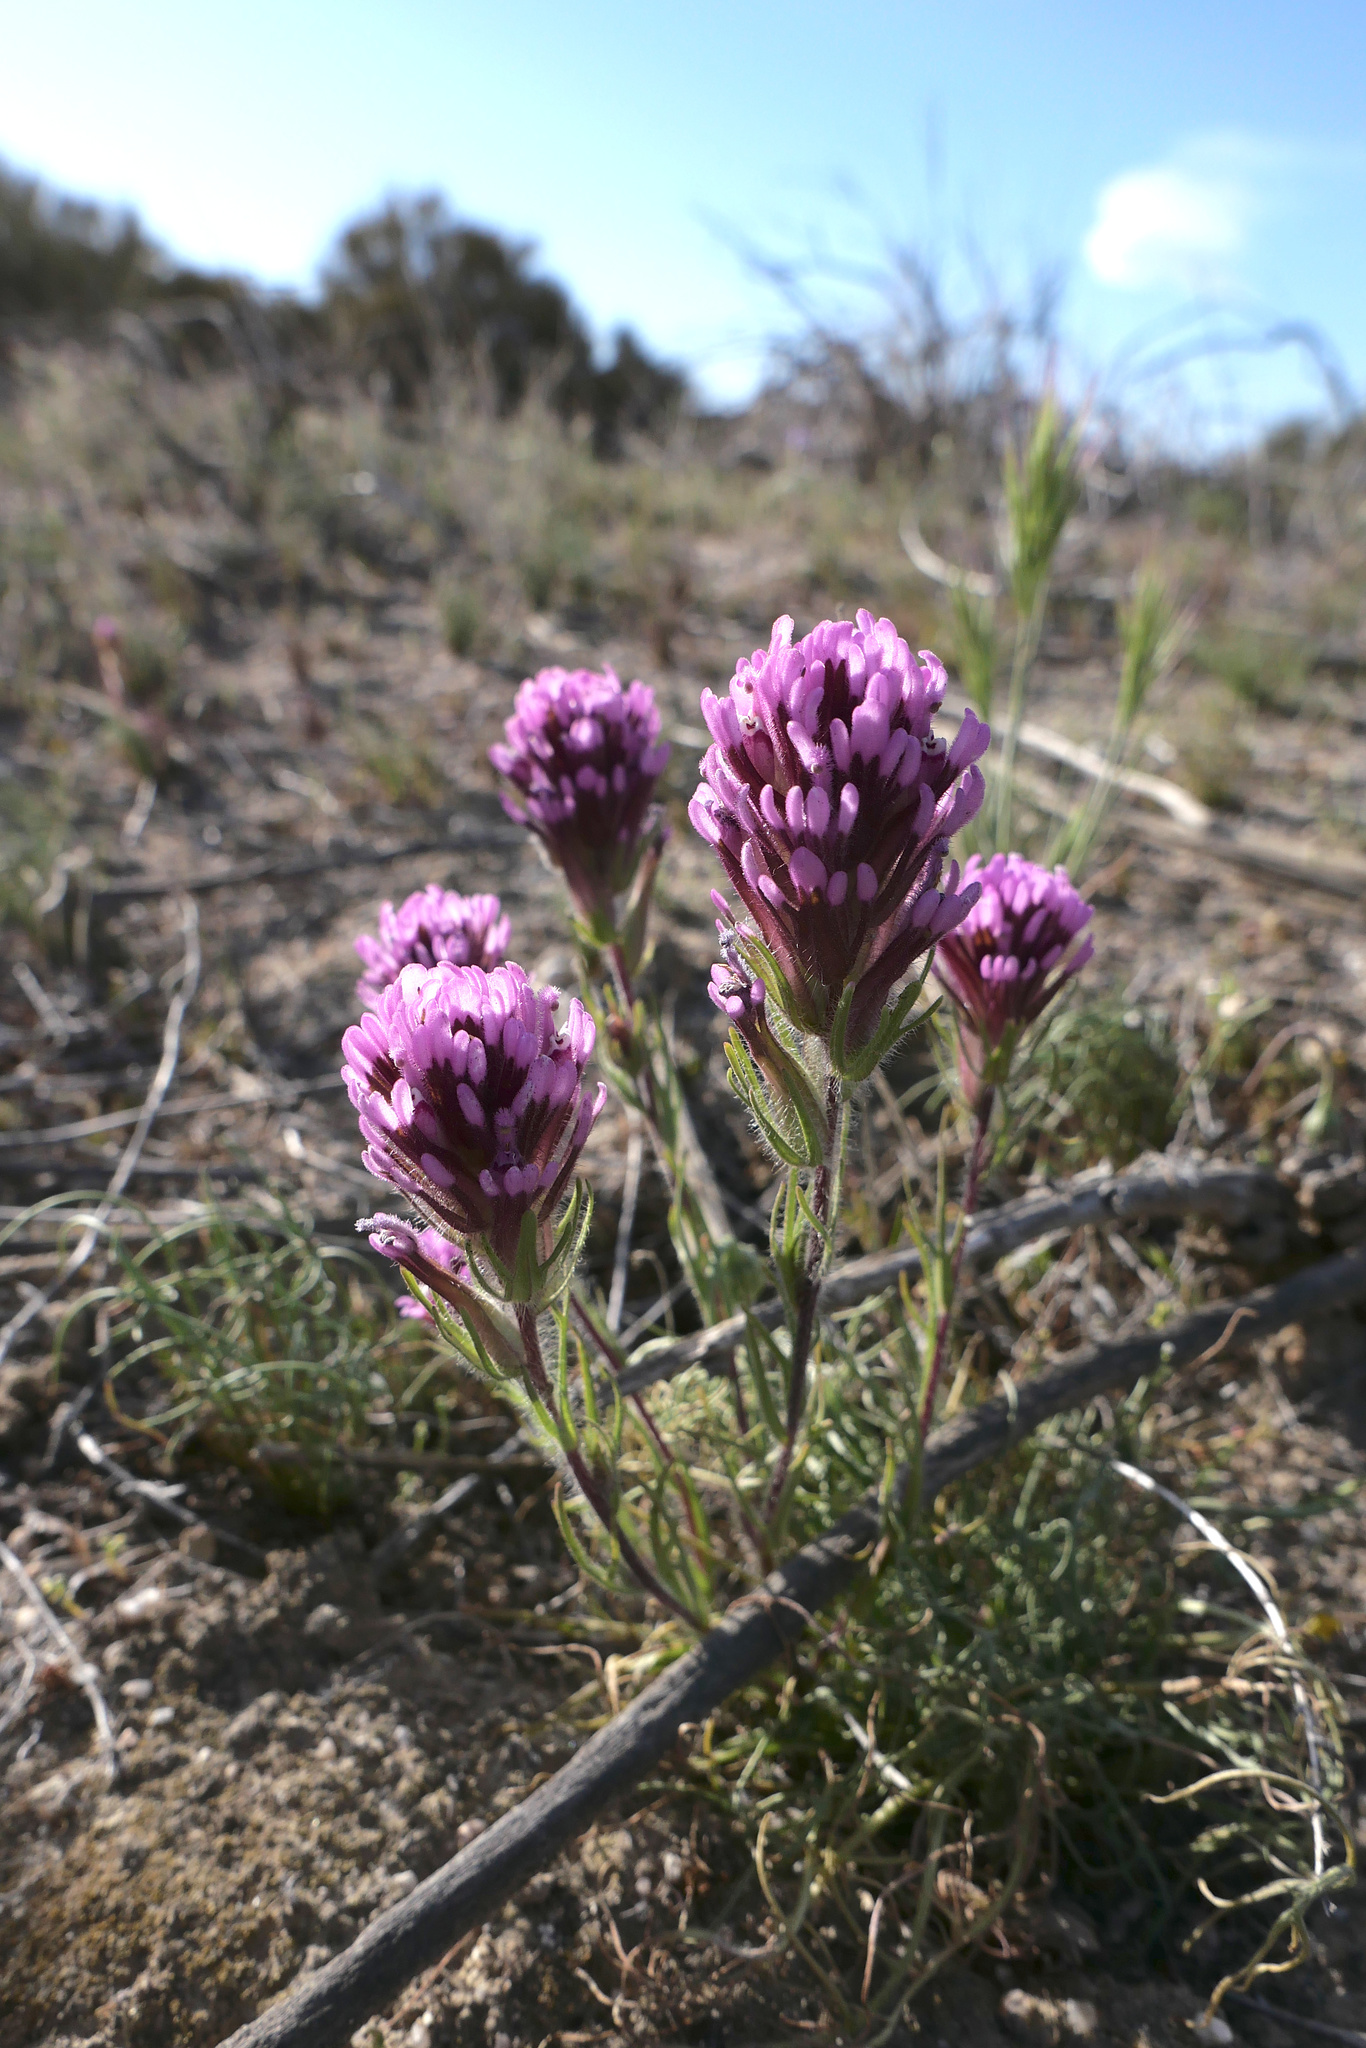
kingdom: Plantae
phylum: Tracheophyta
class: Magnoliopsida
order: Lamiales
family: Orobanchaceae
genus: Castilleja
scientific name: Castilleja exserta
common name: Purple owl-clover
